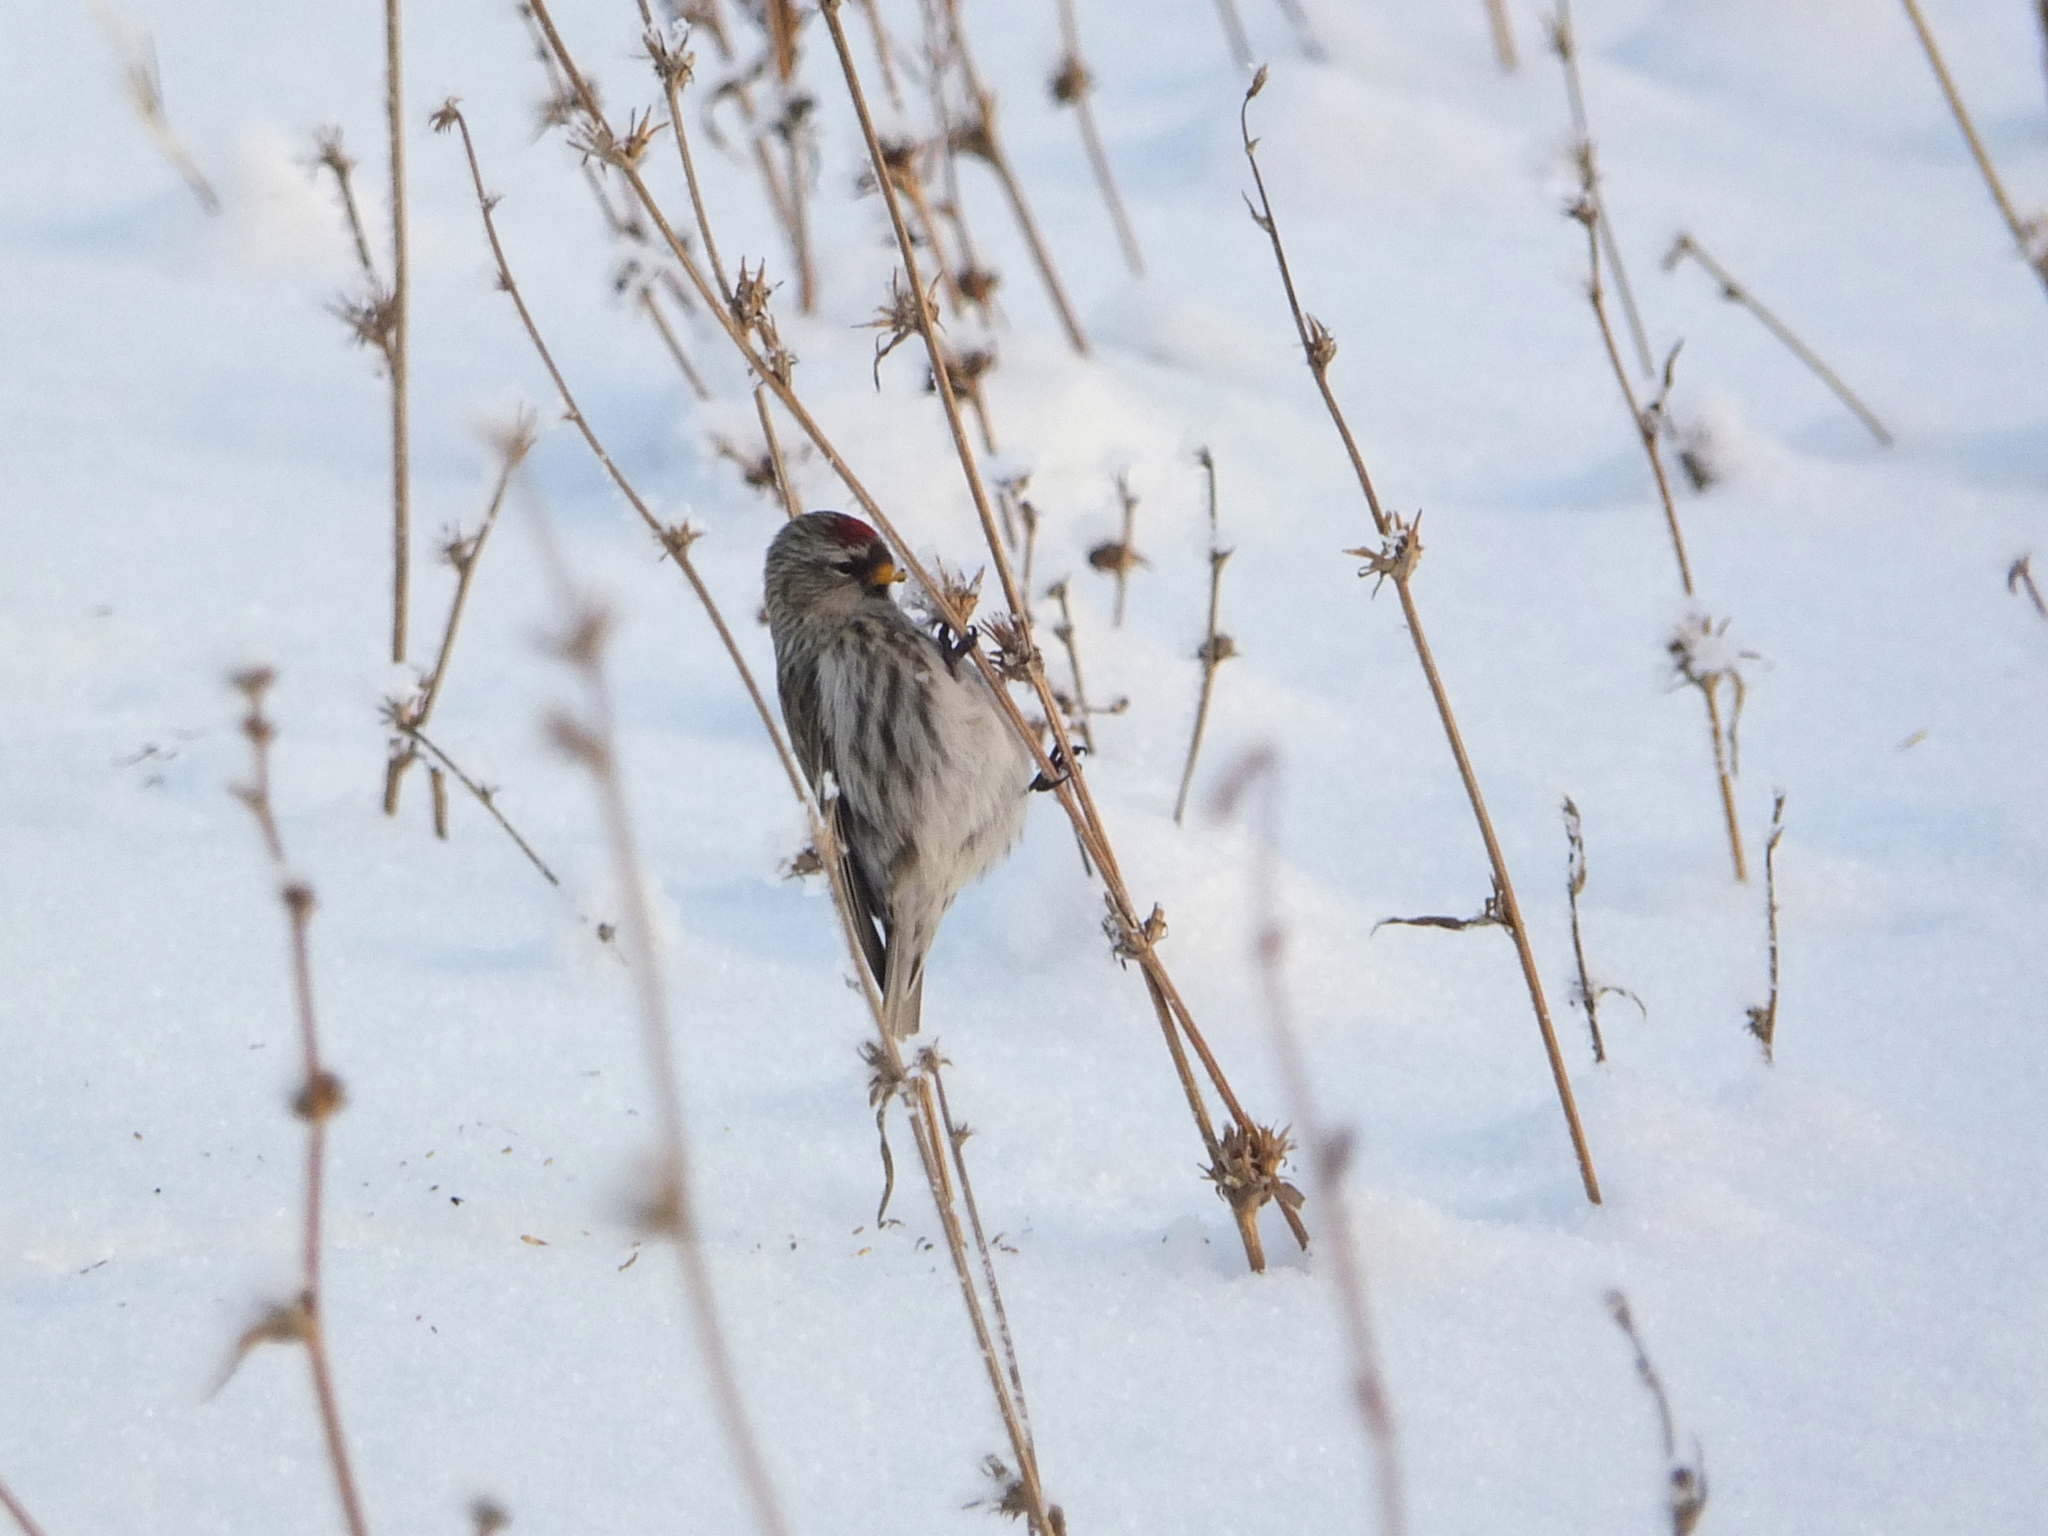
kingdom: Animalia
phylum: Chordata
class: Aves
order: Passeriformes
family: Fringillidae
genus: Acanthis
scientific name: Acanthis flammea
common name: Common redpoll
